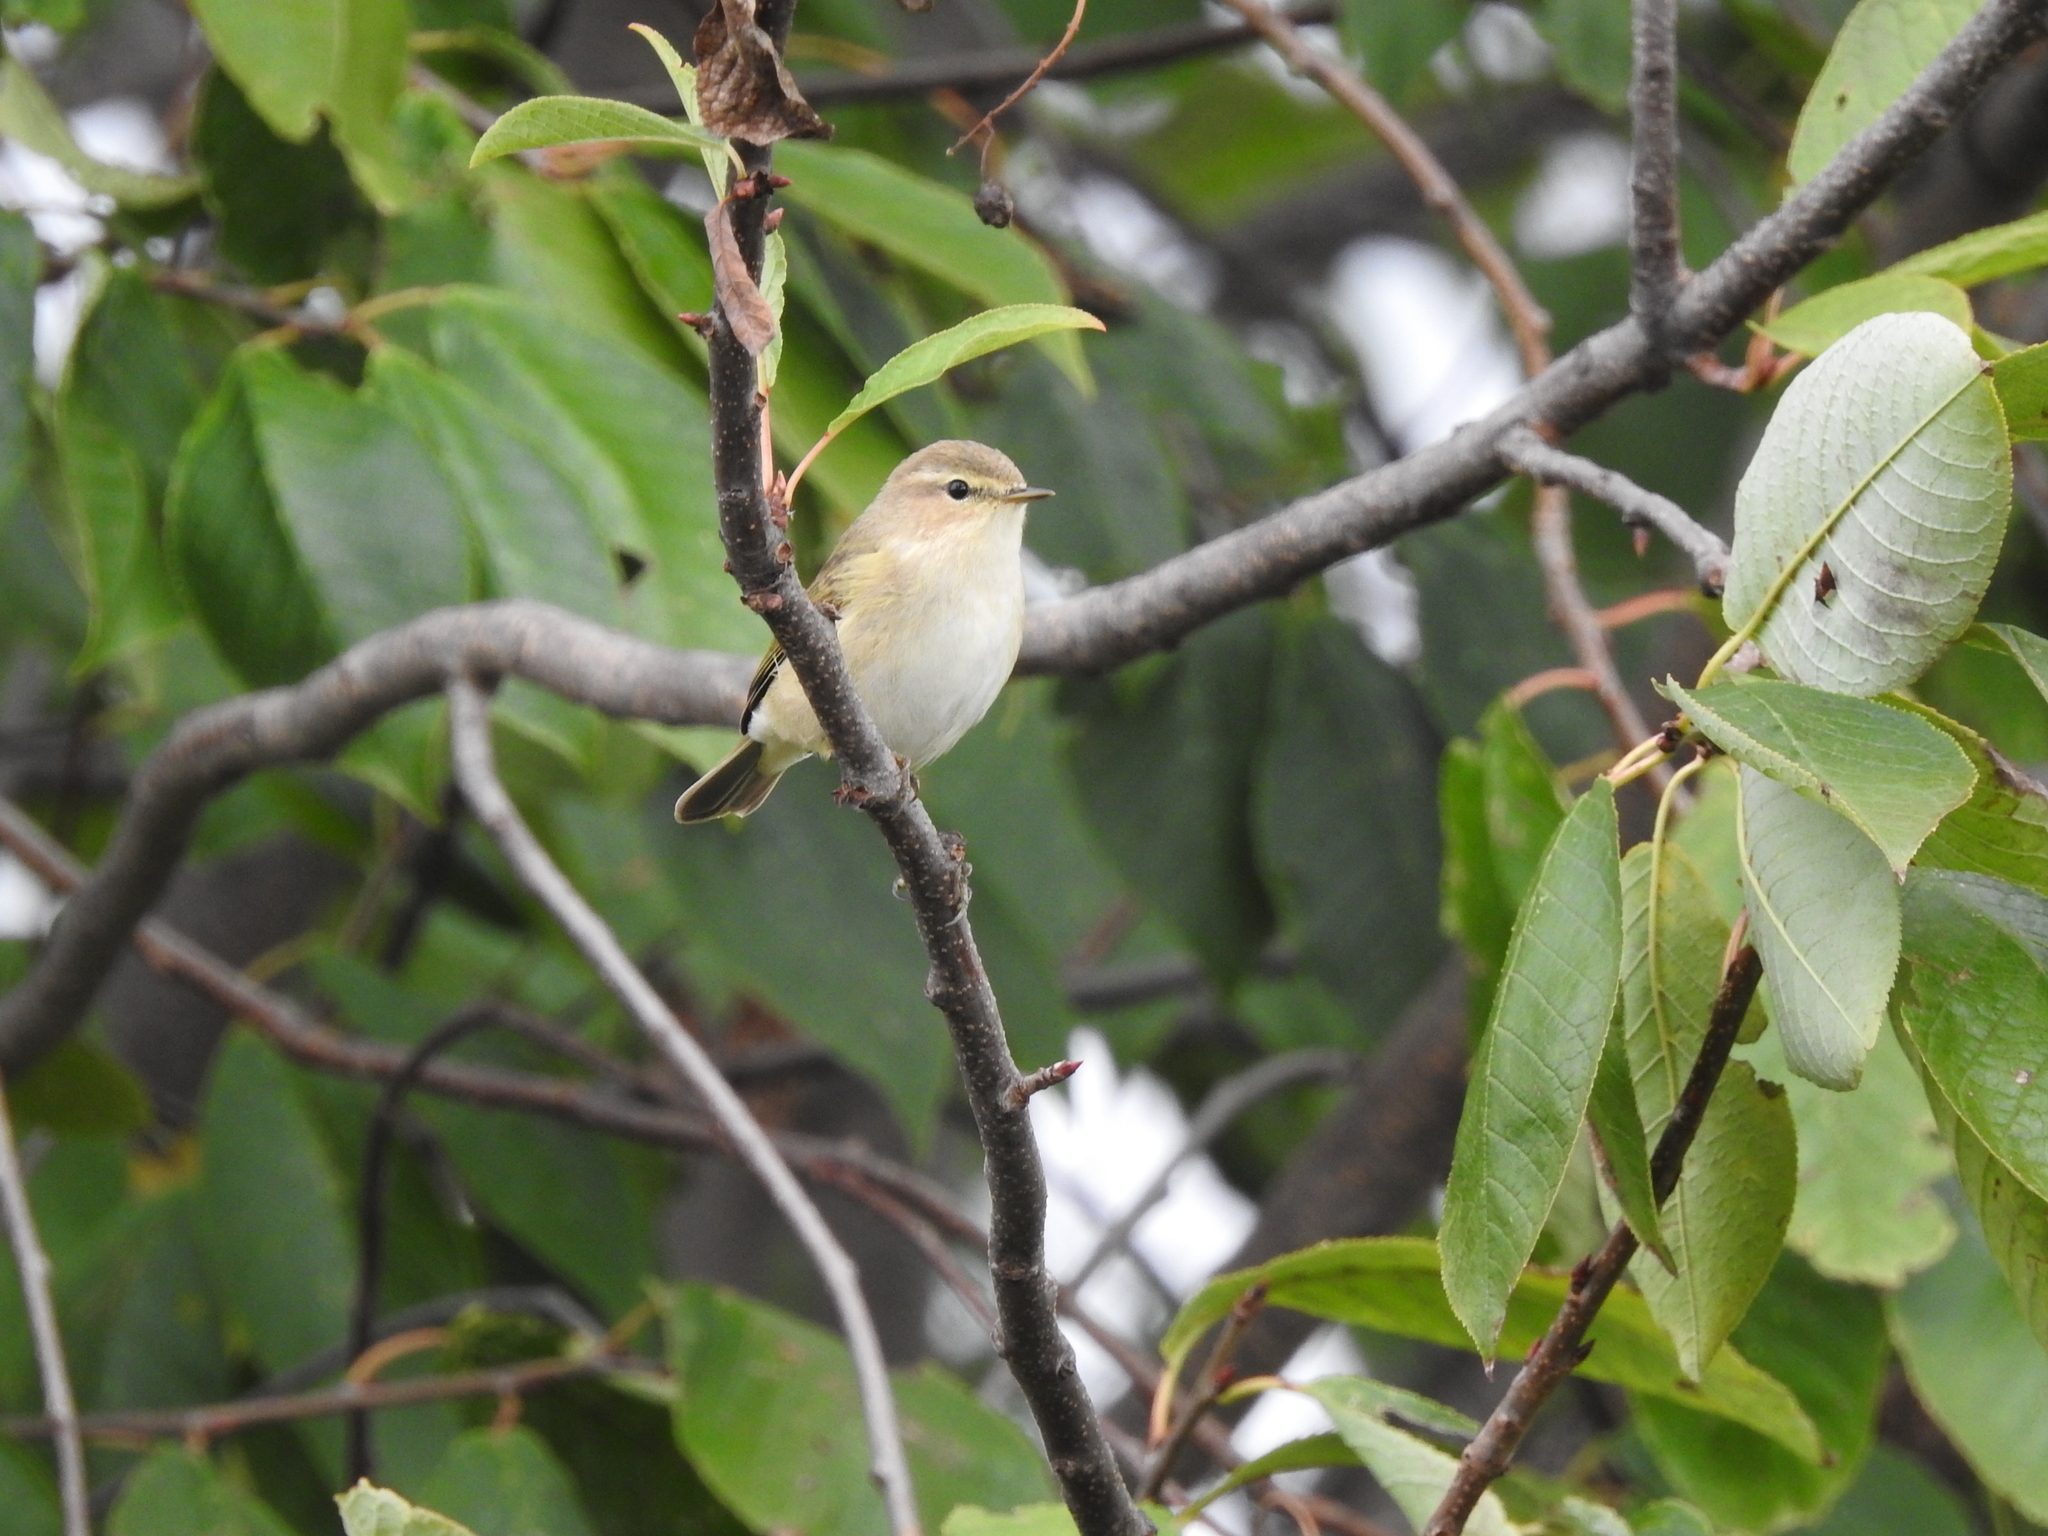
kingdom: Animalia
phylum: Chordata
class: Aves
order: Passeriformes
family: Phylloscopidae
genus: Phylloscopus
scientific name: Phylloscopus collybita
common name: Common chiffchaff
